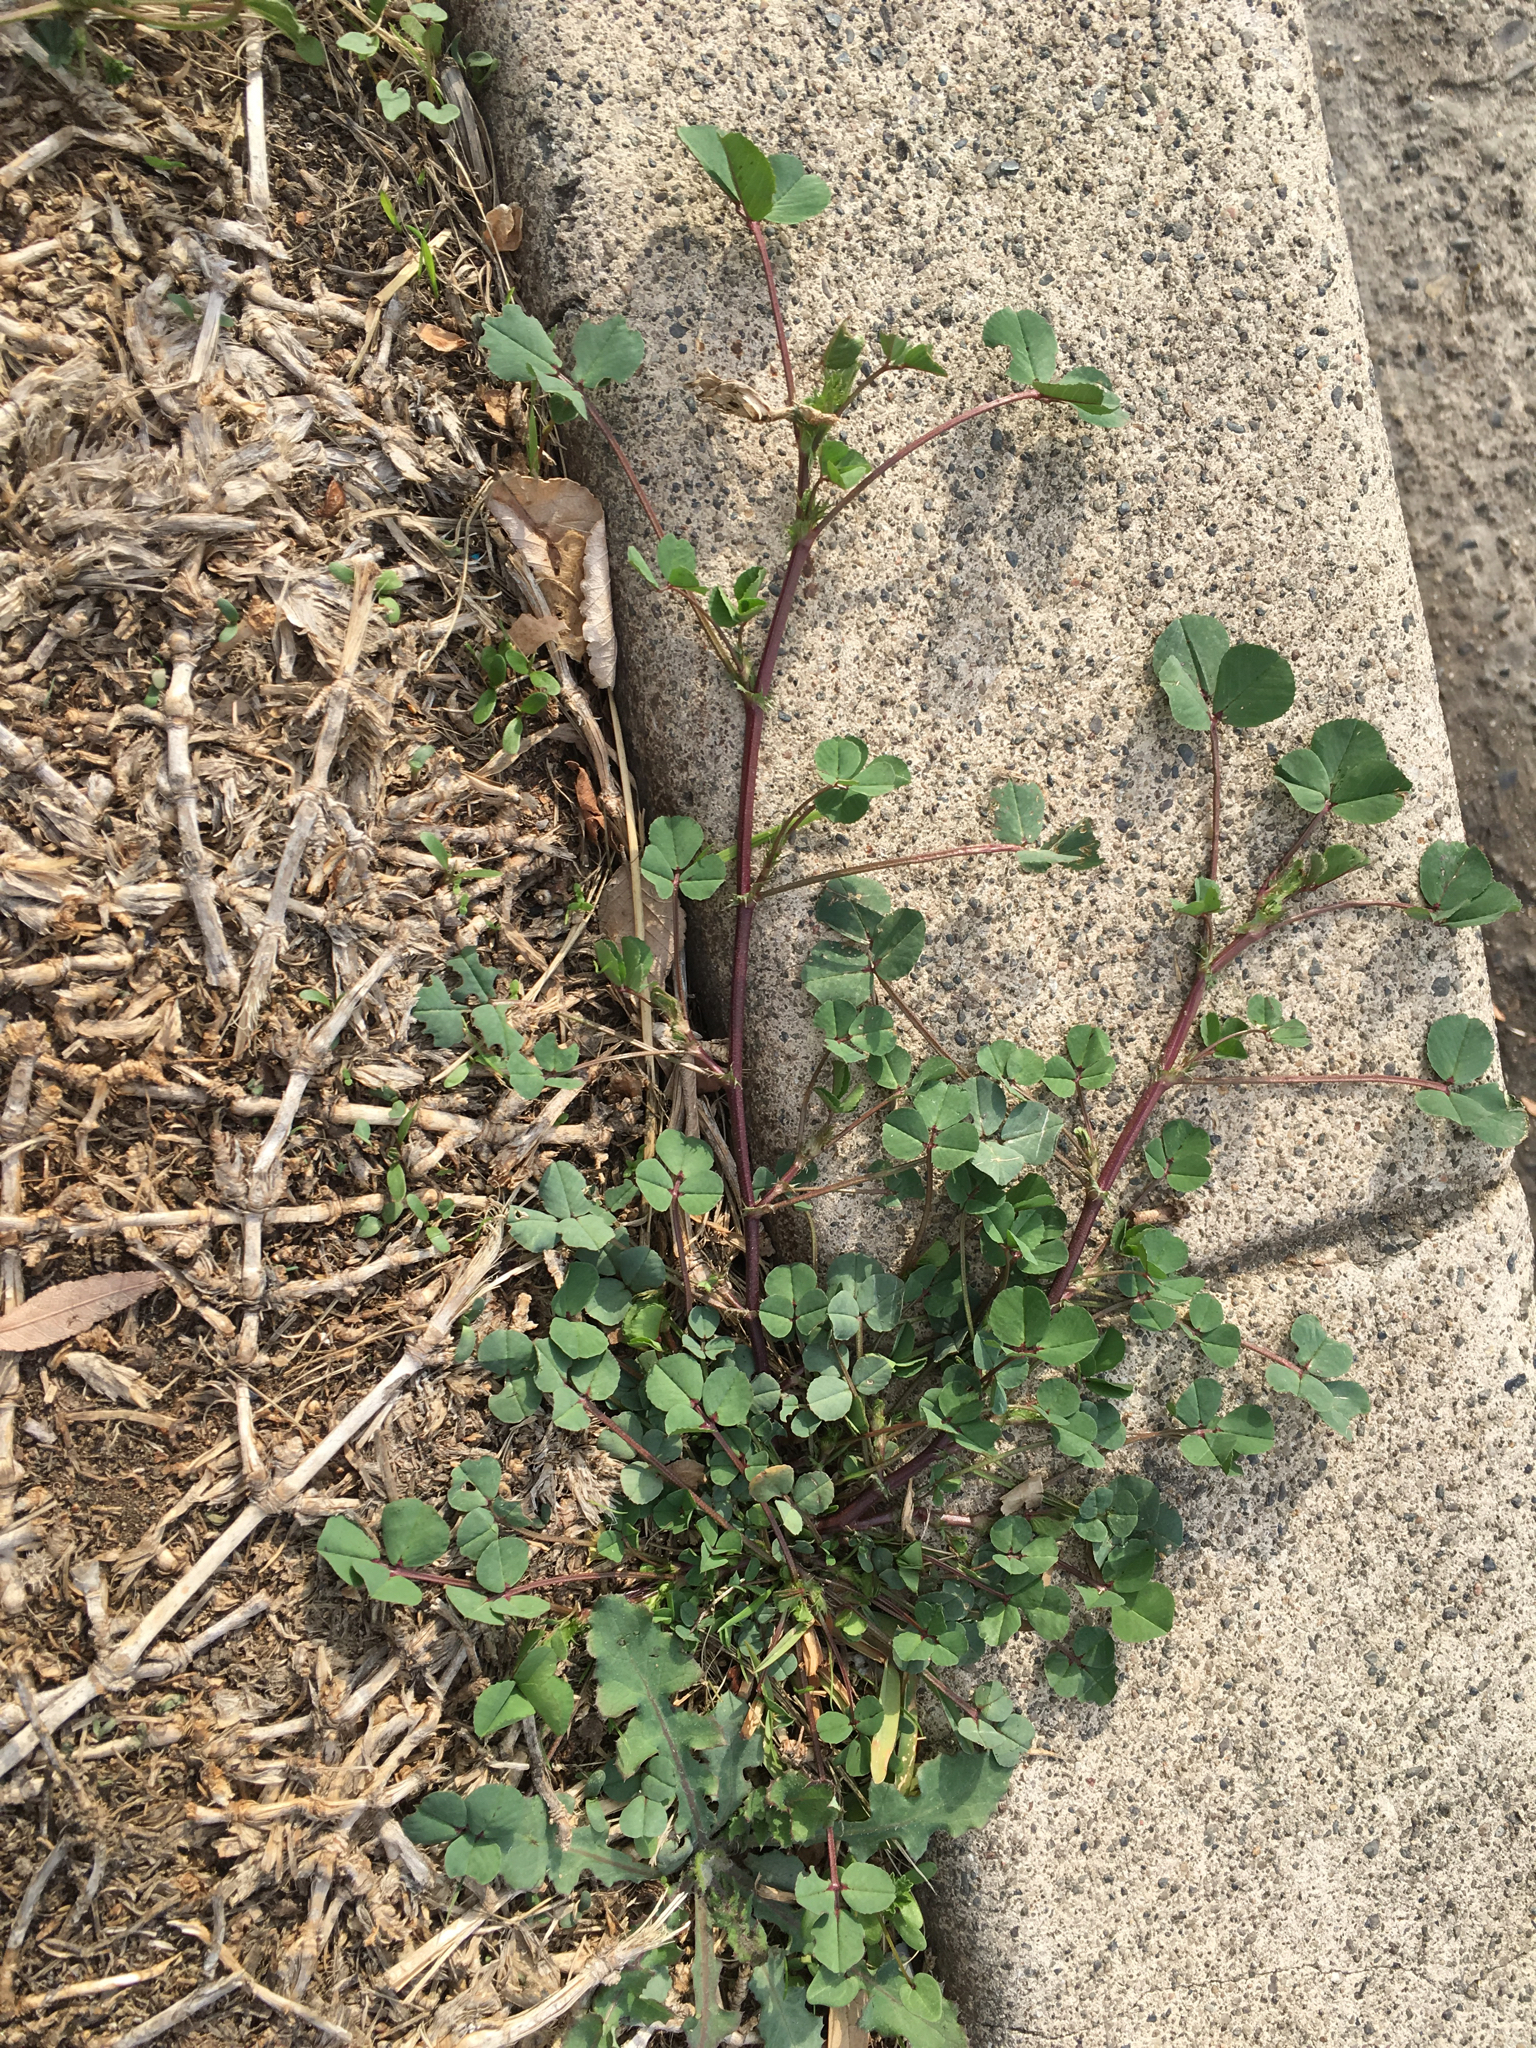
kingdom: Plantae
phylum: Tracheophyta
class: Magnoliopsida
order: Fabales
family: Fabaceae
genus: Medicago
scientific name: Medicago polymorpha
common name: Burclover
